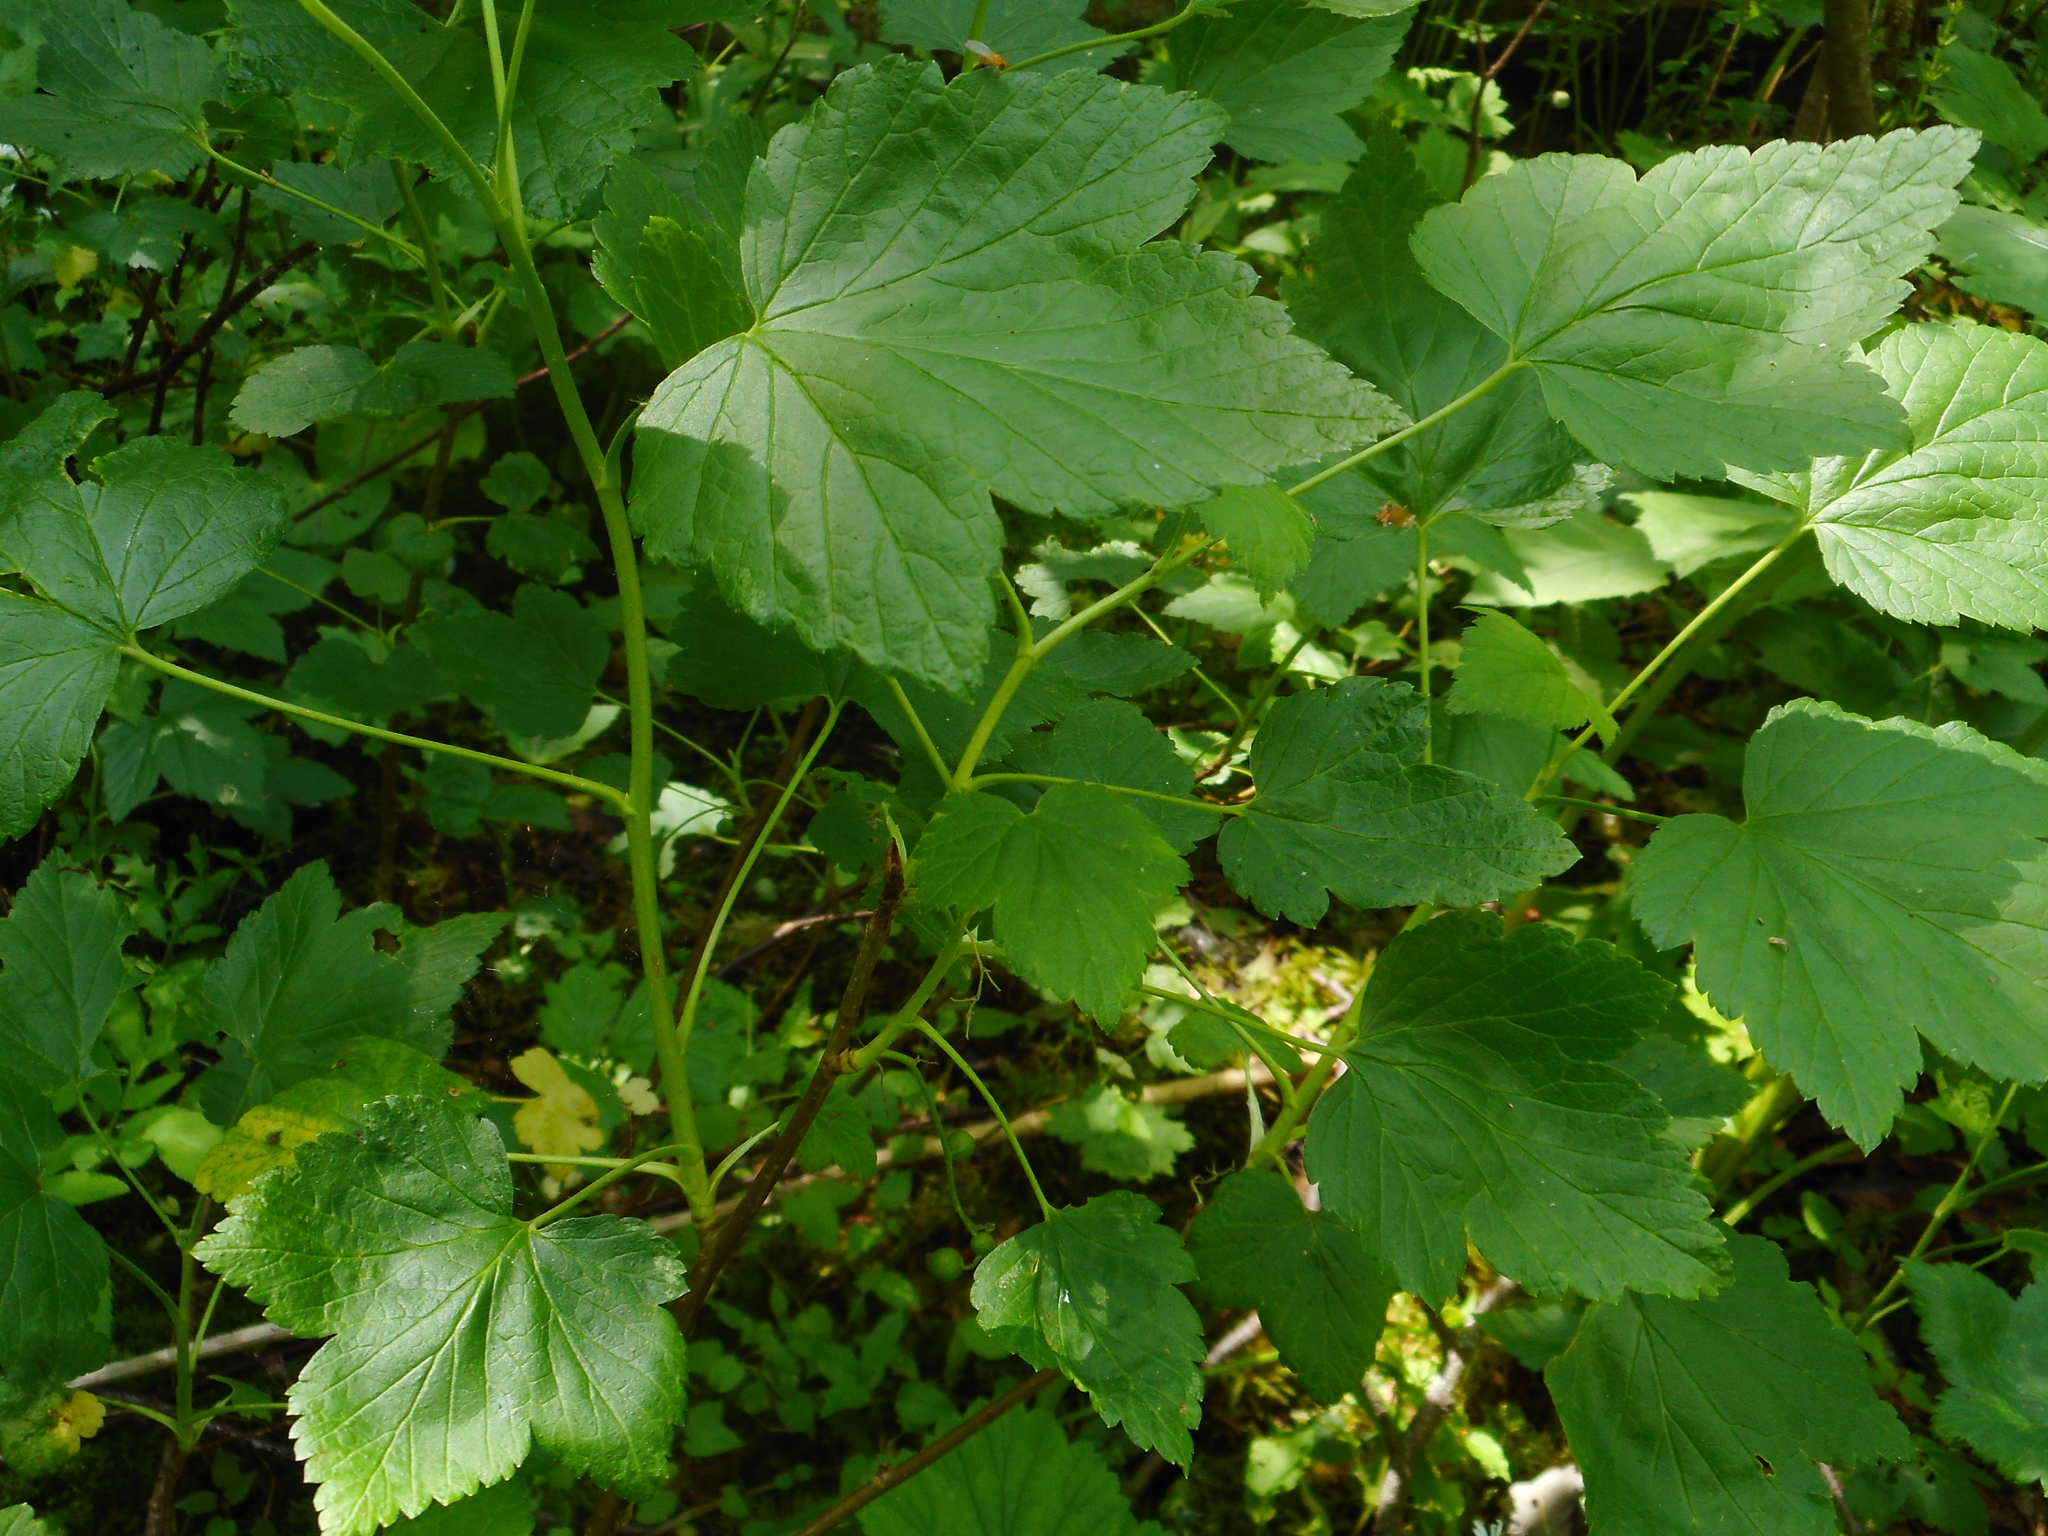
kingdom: Plantae
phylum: Tracheophyta
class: Magnoliopsida
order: Saxifragales
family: Grossulariaceae
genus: Ribes
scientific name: Ribes nigrum
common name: Black currant
